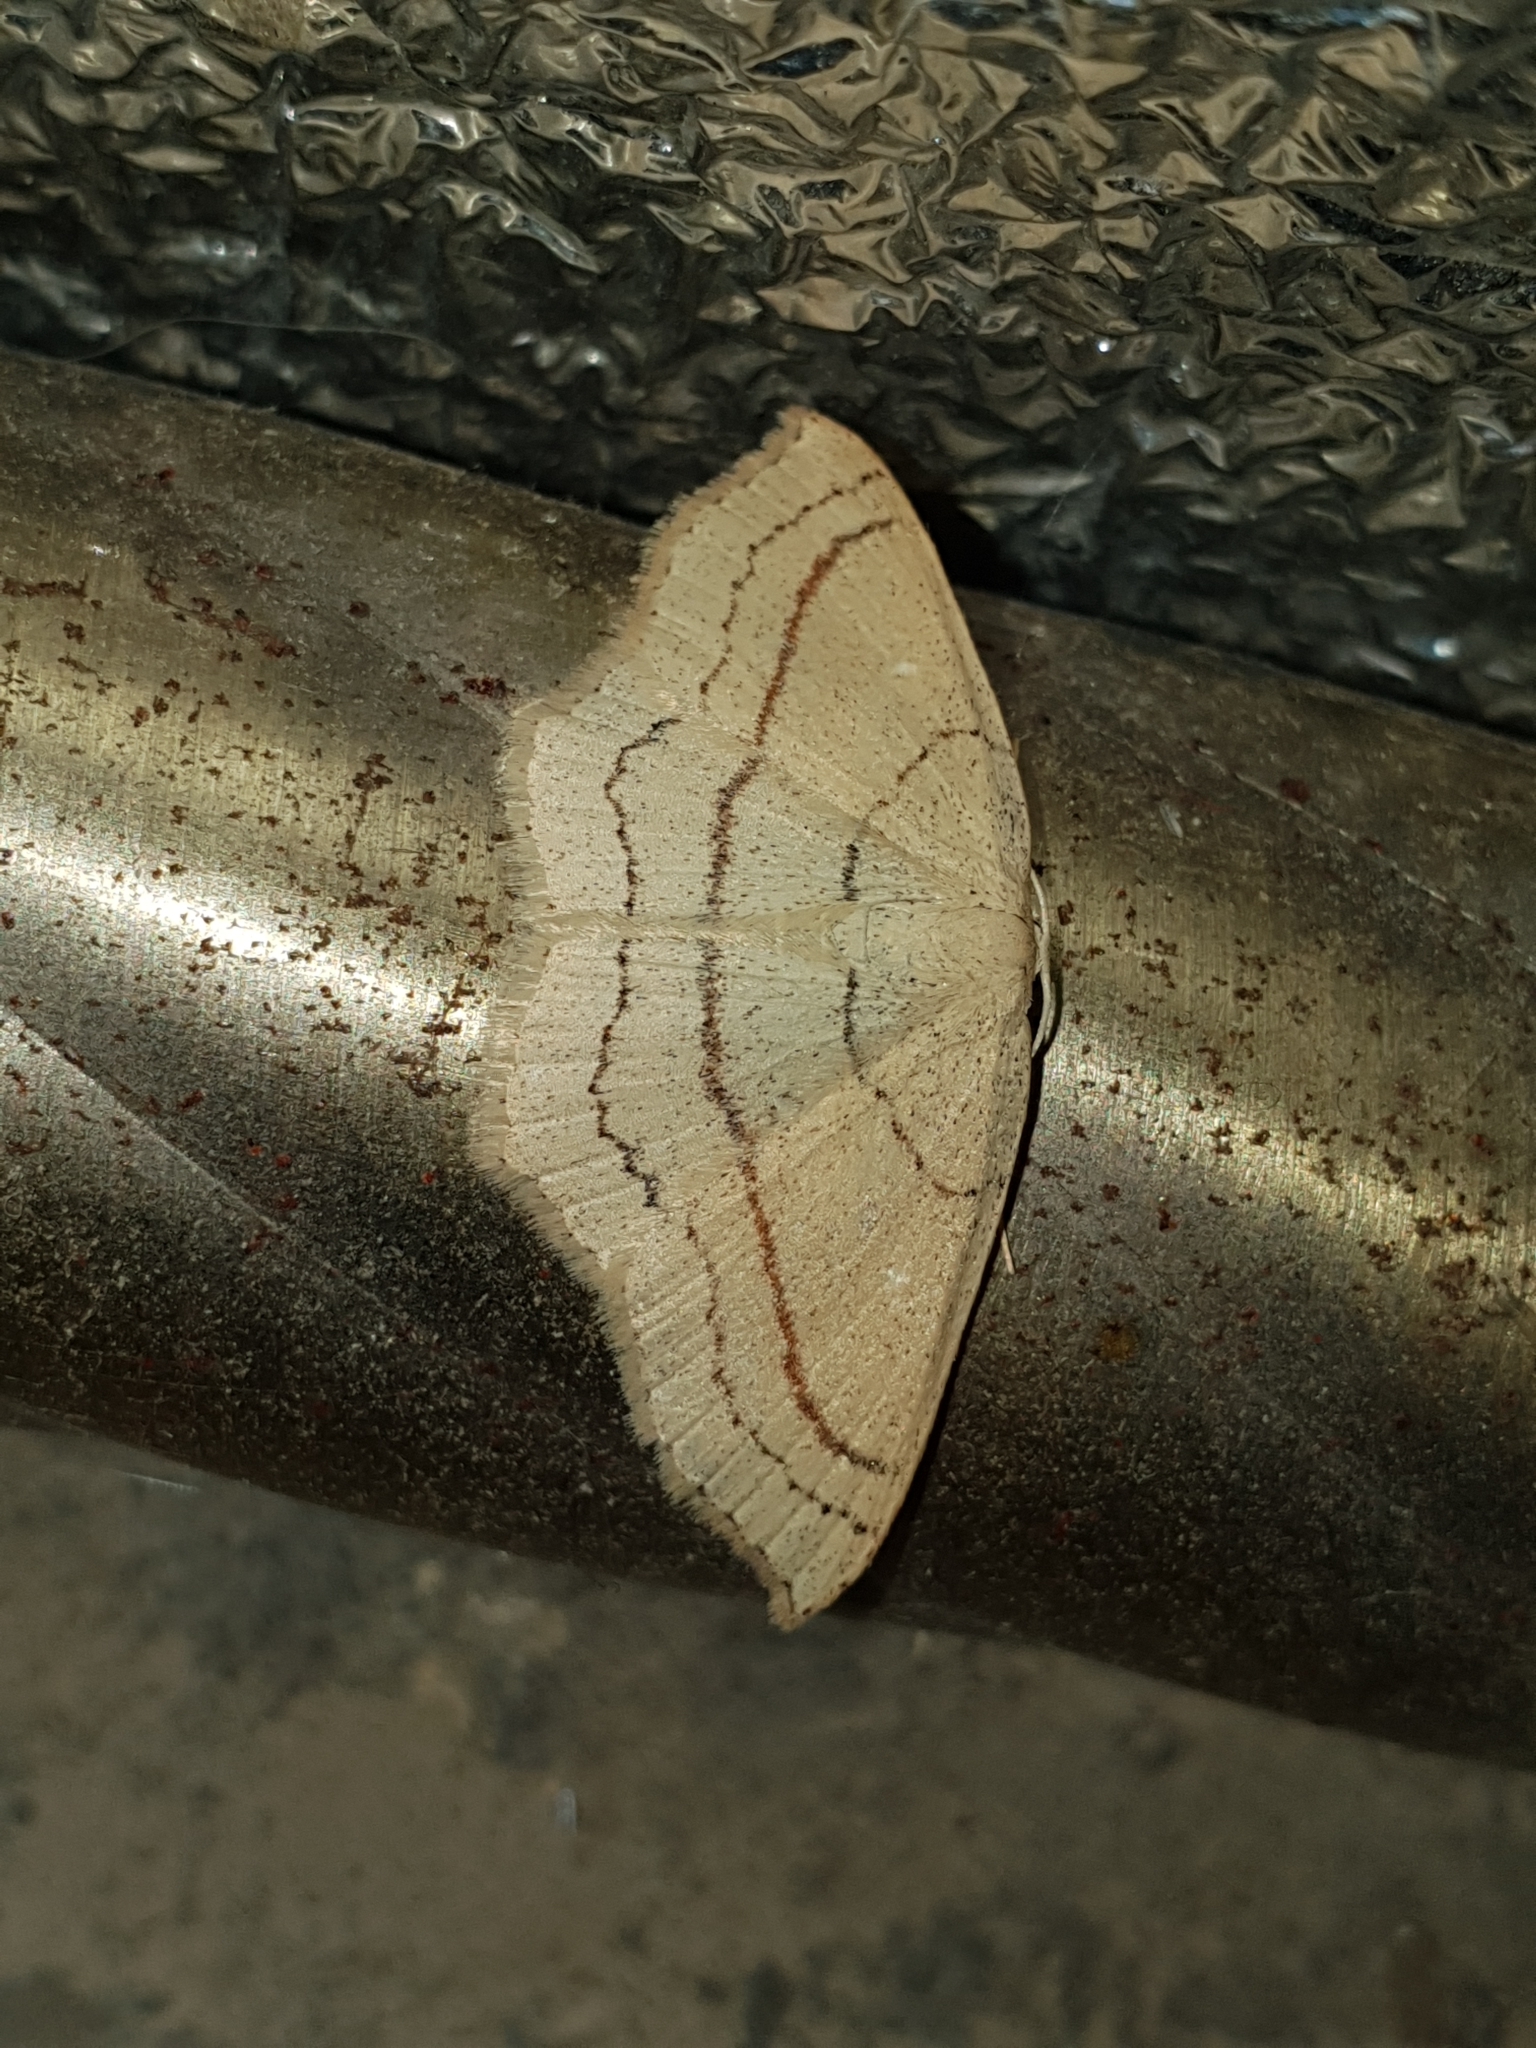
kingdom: Animalia
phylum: Arthropoda
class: Insecta
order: Lepidoptera
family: Geometridae
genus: Cyclophora
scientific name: Cyclophora linearia
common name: Clay triple-lines
